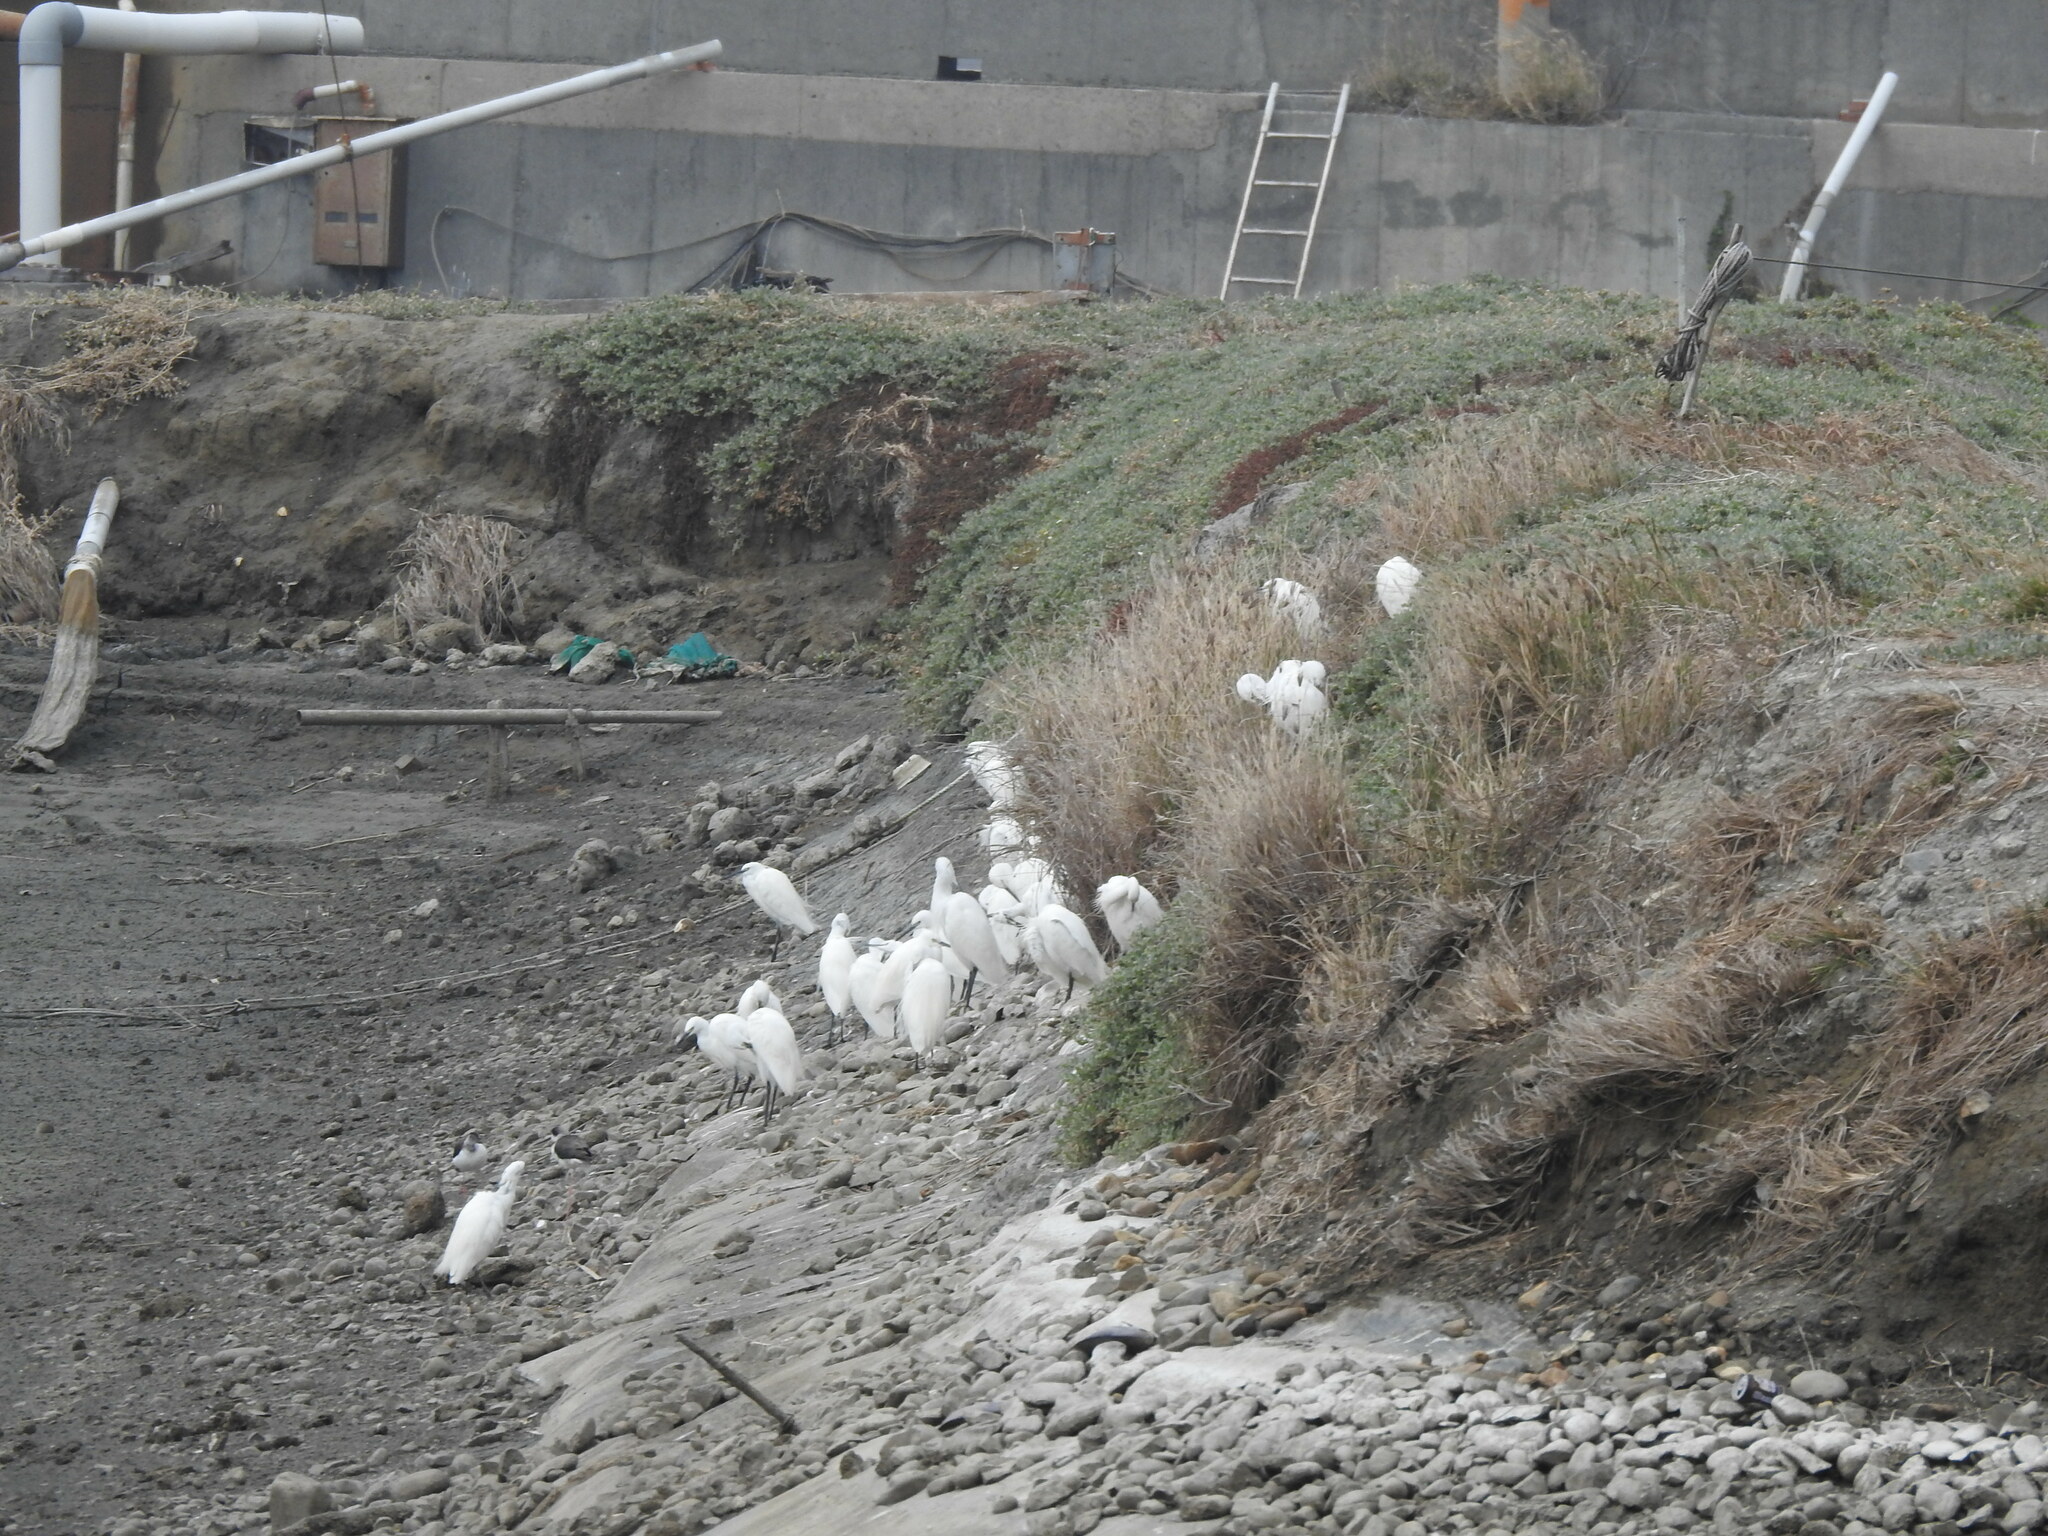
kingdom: Animalia
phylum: Chordata
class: Aves
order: Pelecaniformes
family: Ardeidae
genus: Egretta
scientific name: Egretta garzetta
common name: Little egret
